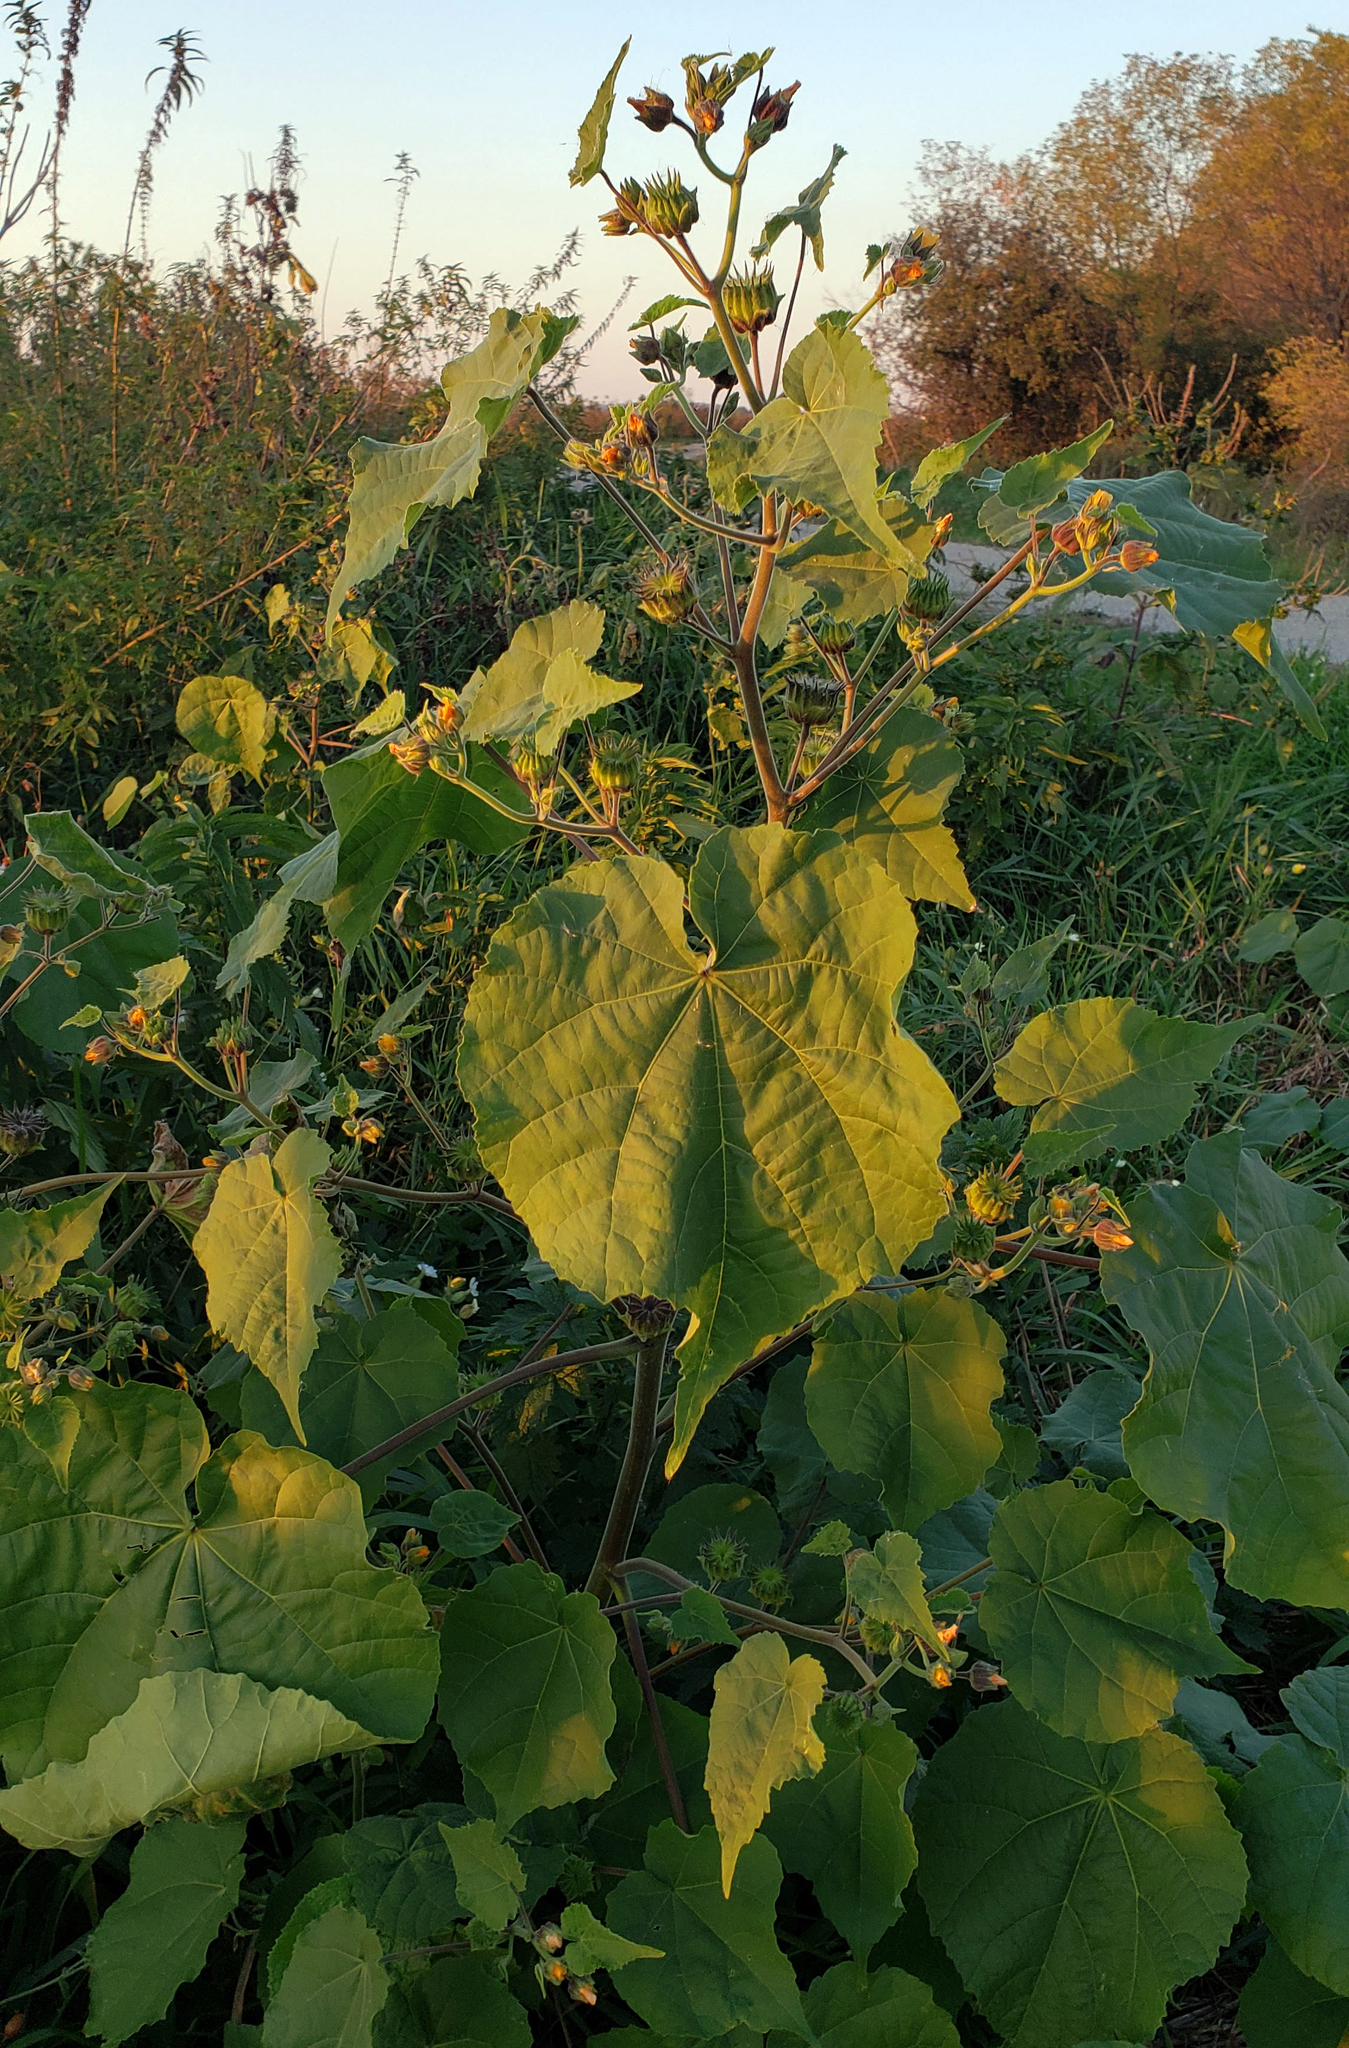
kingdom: Plantae
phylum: Tracheophyta
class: Magnoliopsida
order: Malvales
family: Malvaceae
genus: Abutilon
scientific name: Abutilon theophrasti
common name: Velvetleaf
